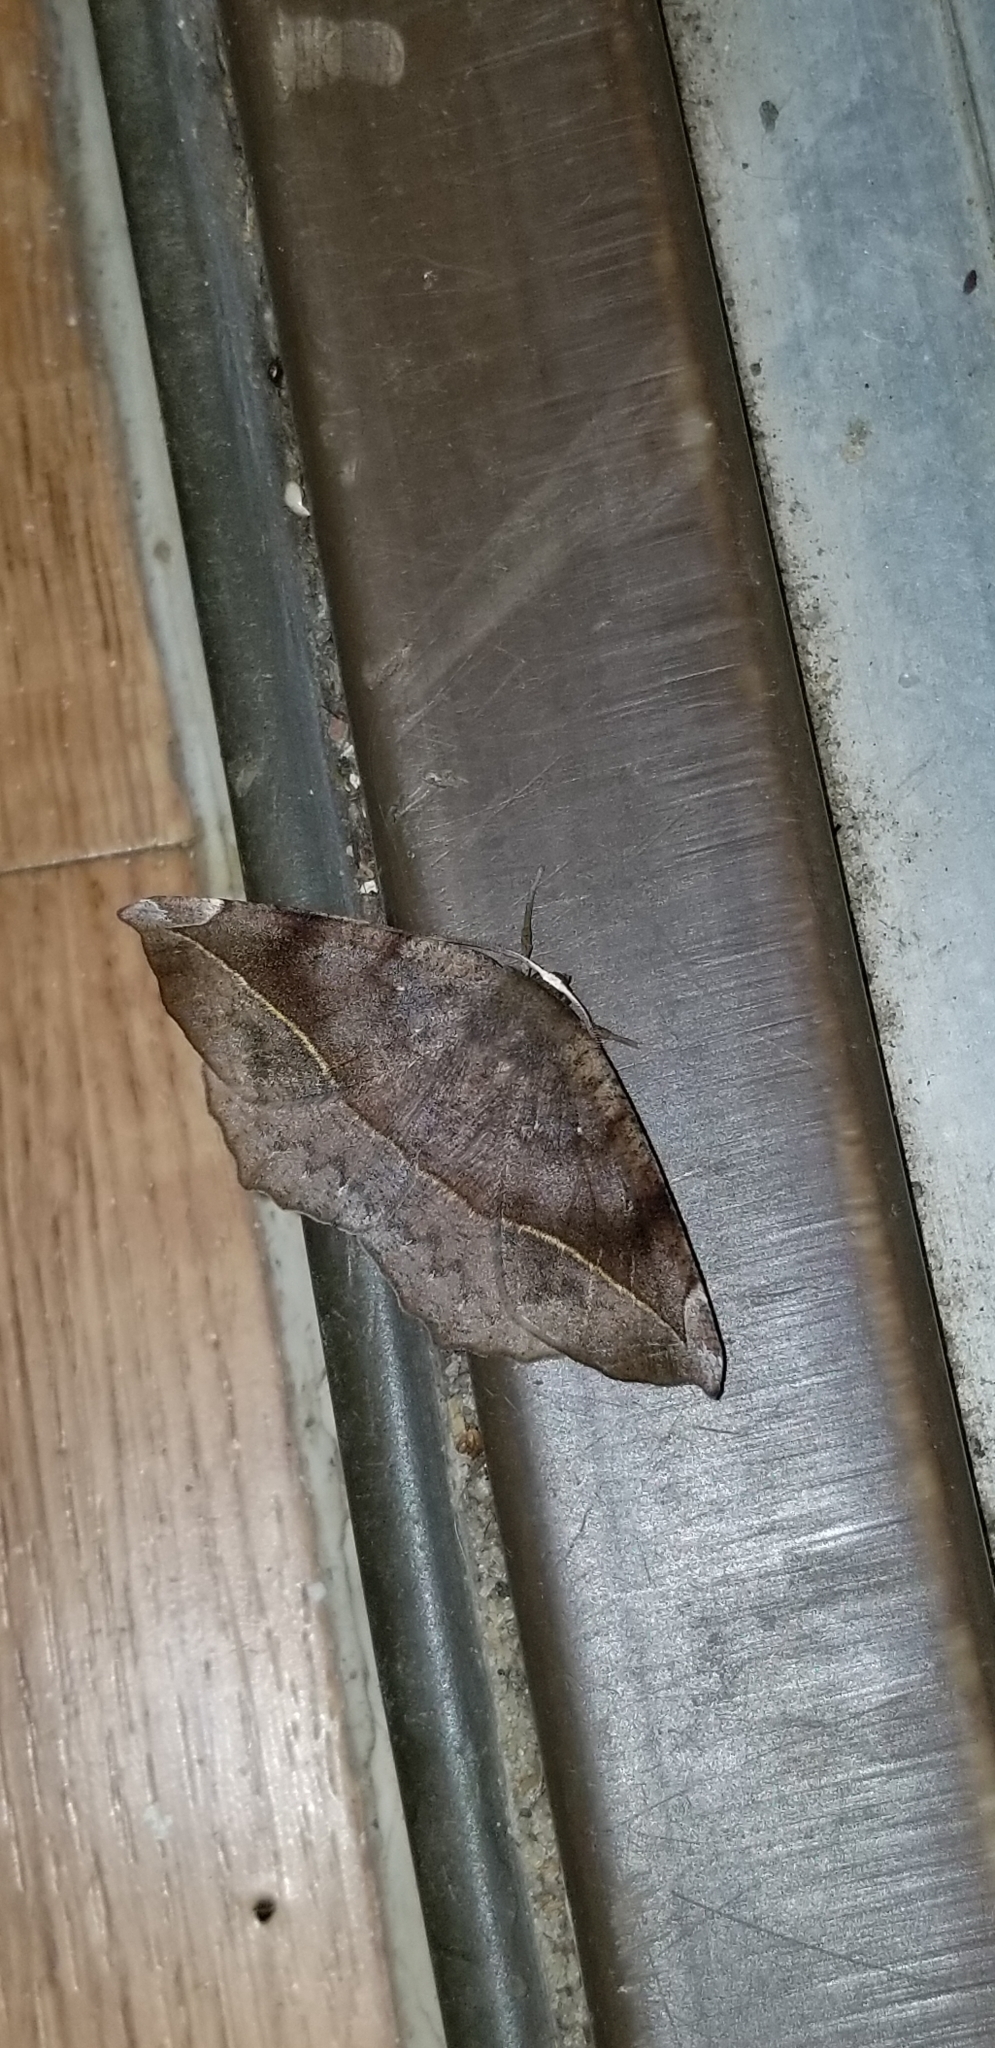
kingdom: Animalia
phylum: Arthropoda
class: Insecta
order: Lepidoptera
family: Geometridae
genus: Eutrapela
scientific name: Eutrapela clemataria
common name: Curved-toothed geometer
